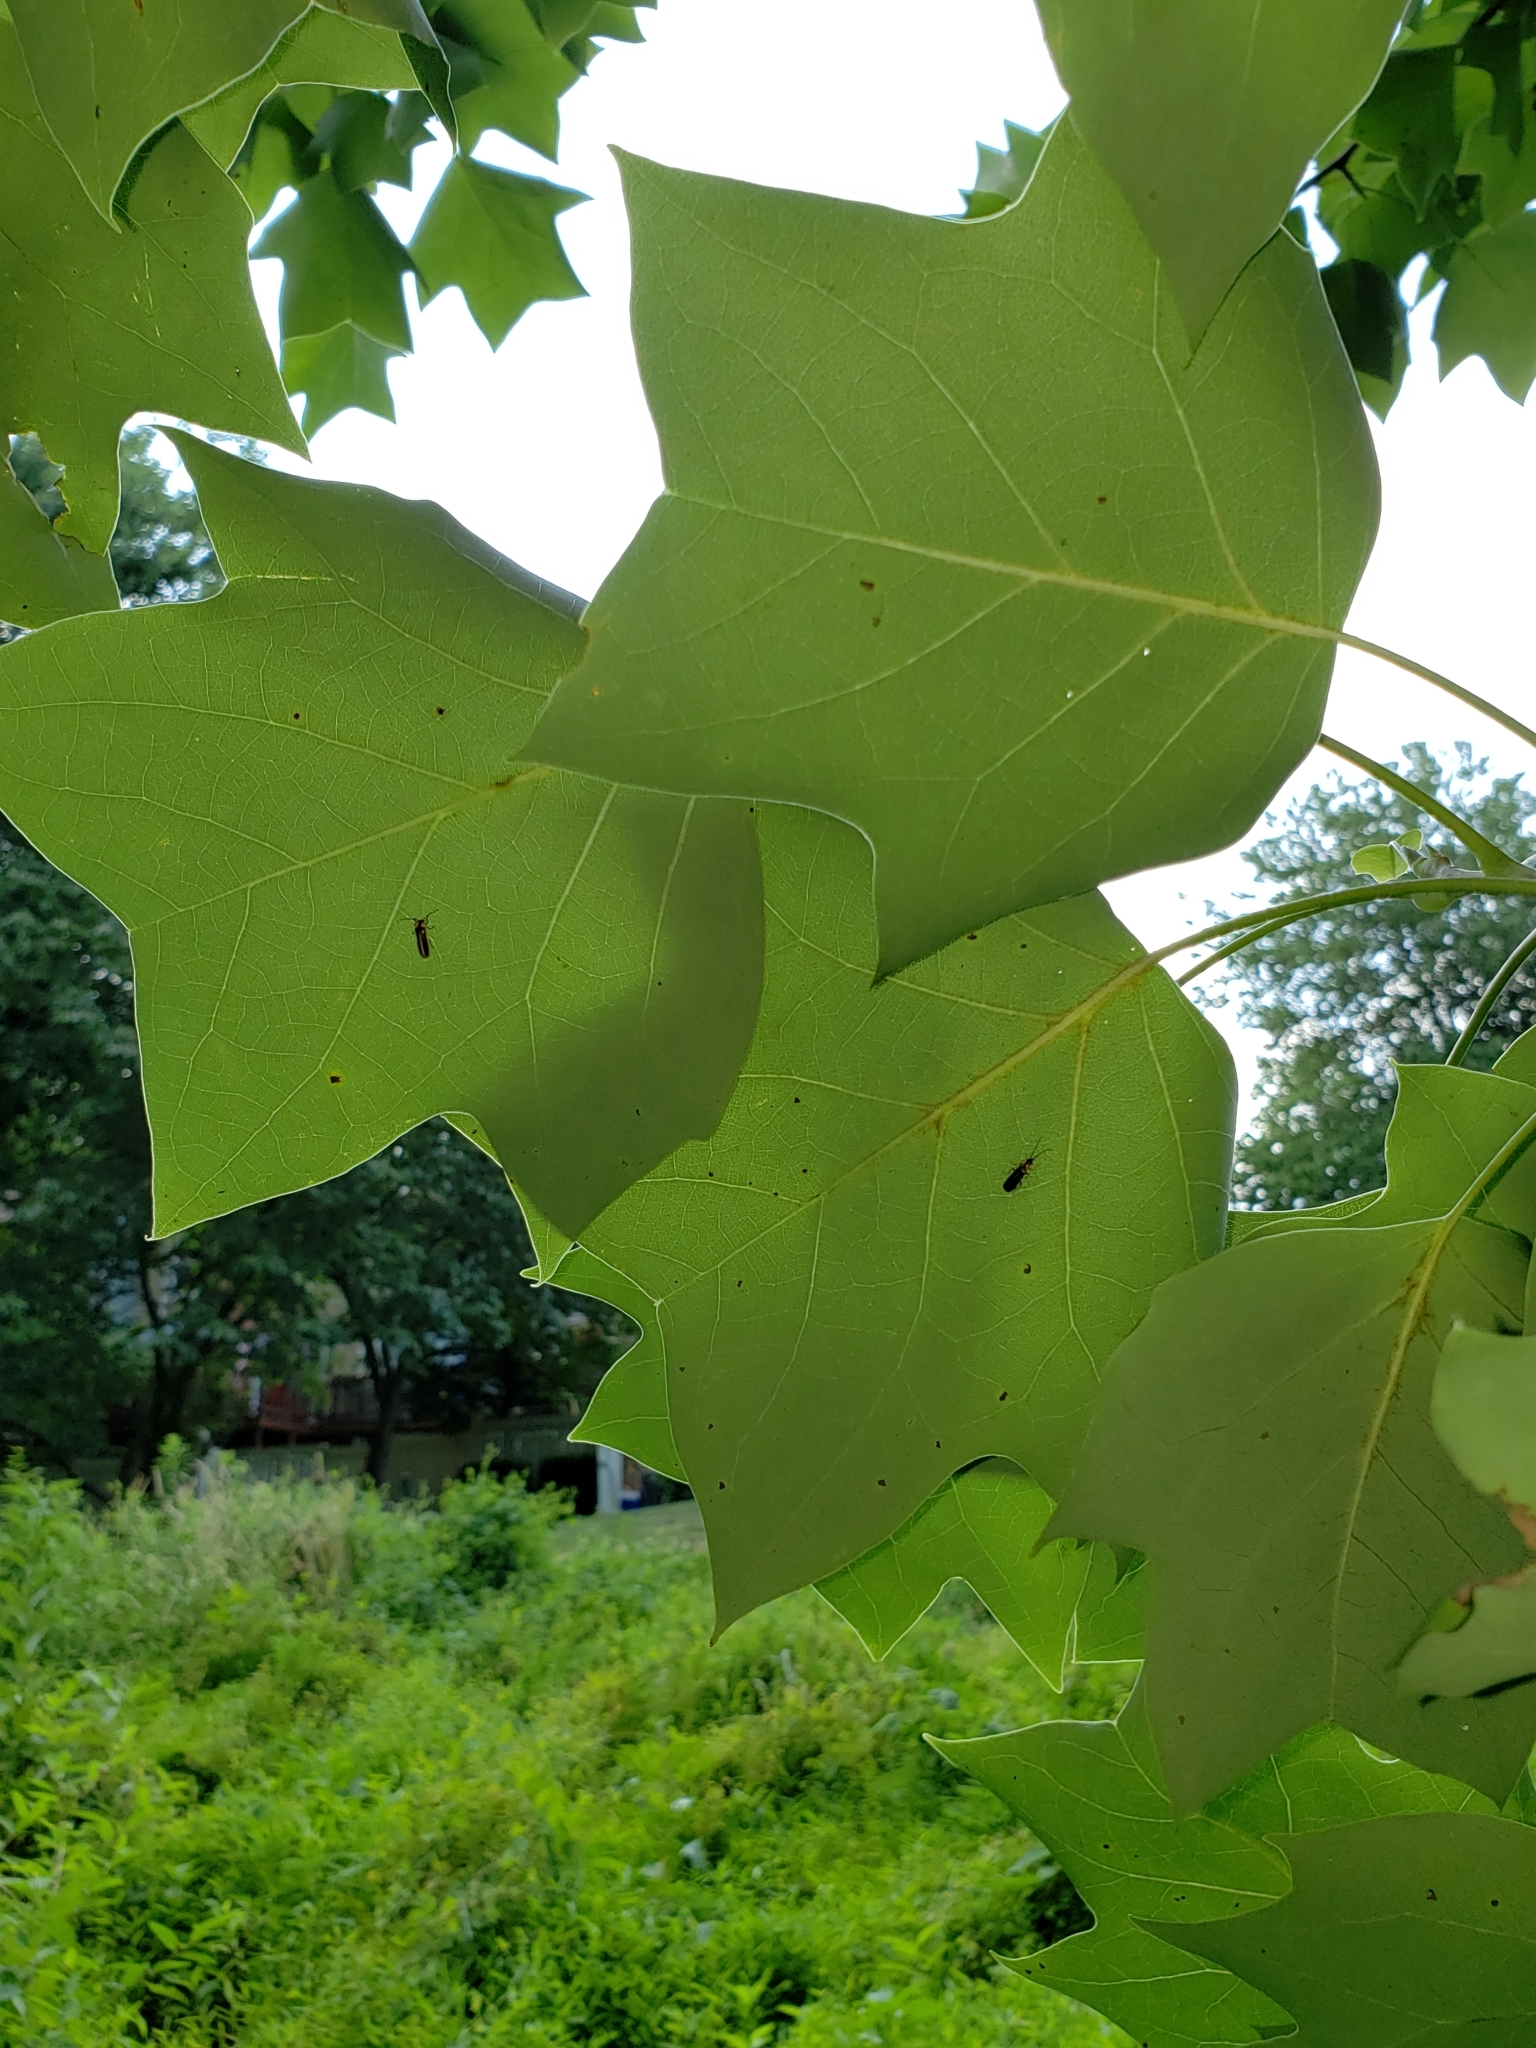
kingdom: Plantae
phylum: Tracheophyta
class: Magnoliopsida
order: Magnoliales
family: Magnoliaceae
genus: Liriodendron
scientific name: Liriodendron tulipifera
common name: Tulip tree
